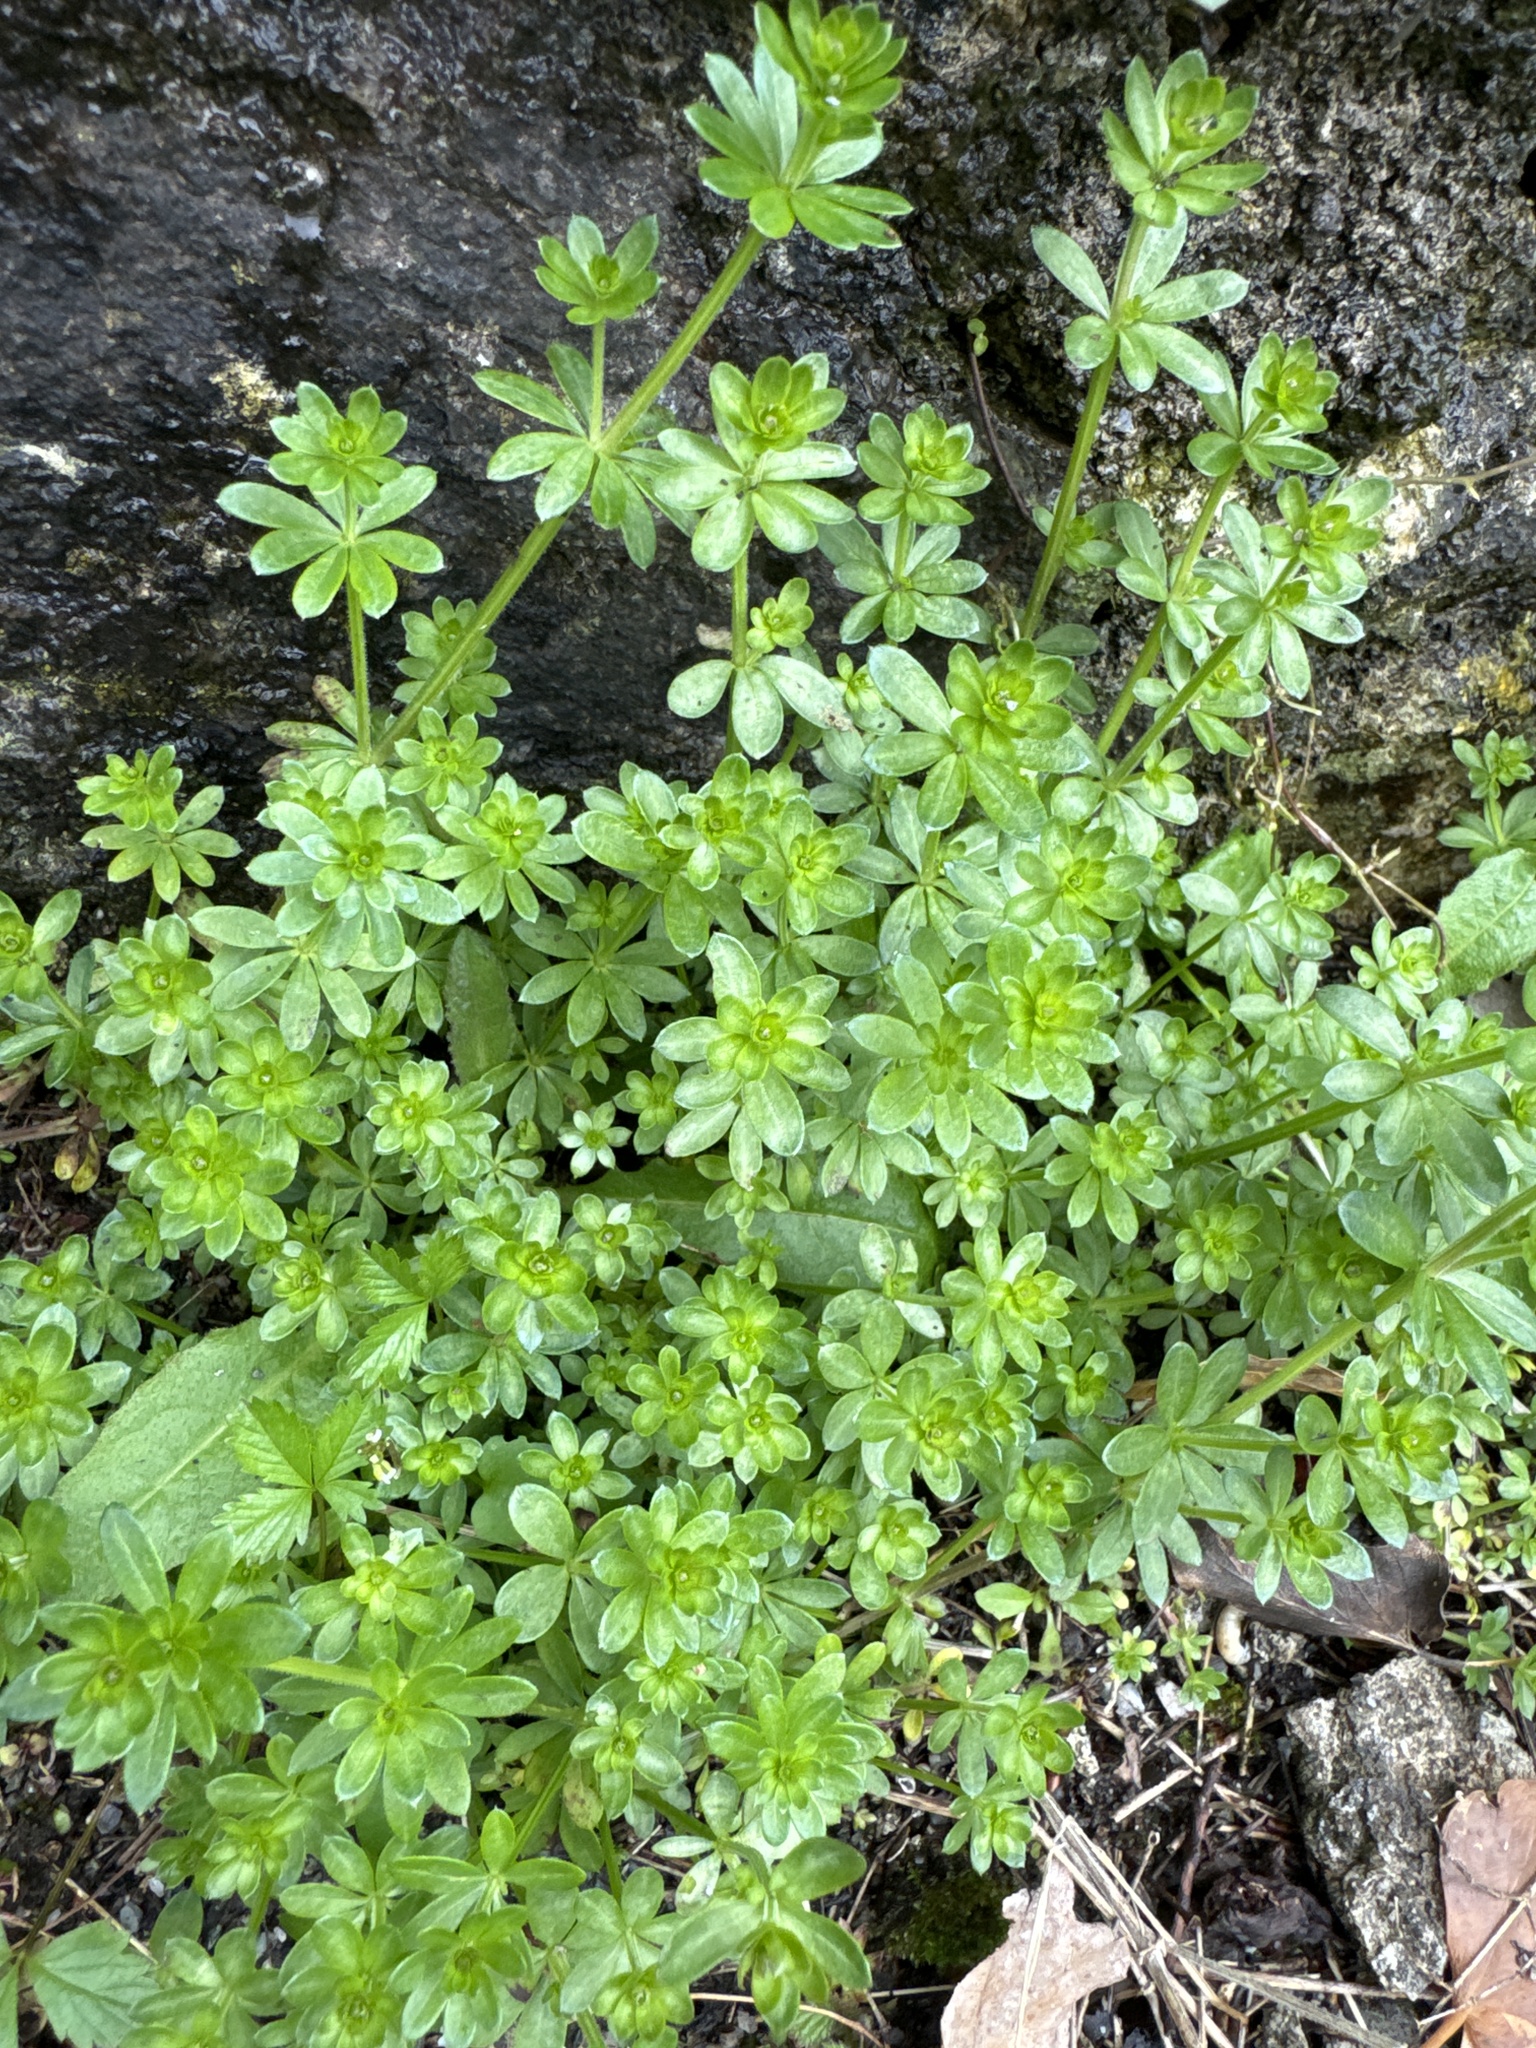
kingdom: Plantae
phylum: Tracheophyta
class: Magnoliopsida
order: Gentianales
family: Rubiaceae
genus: Galium
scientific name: Galium mollugo
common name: Hedge bedstraw
